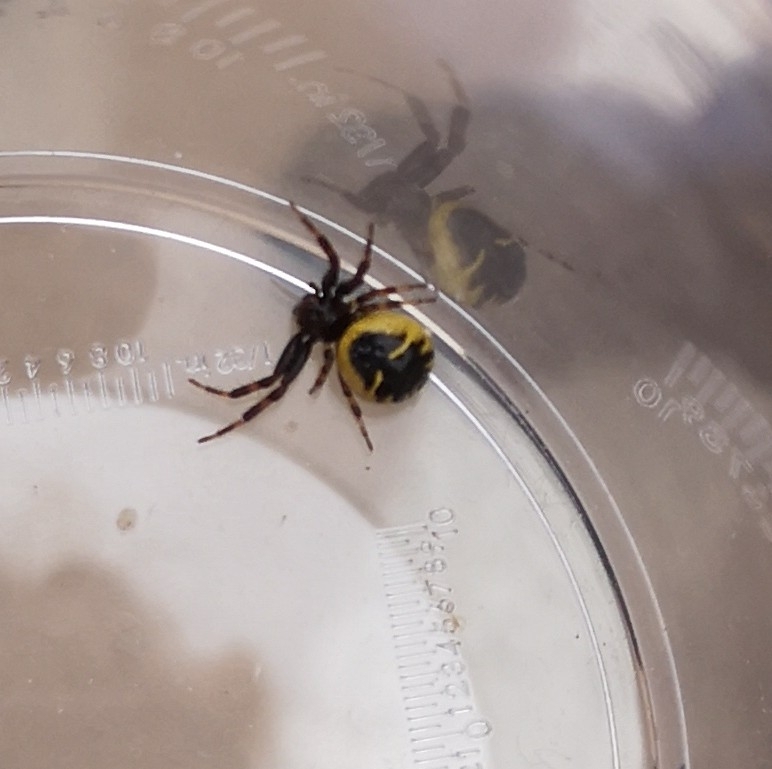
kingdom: Animalia
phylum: Arthropoda
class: Arachnida
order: Araneae
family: Thomisidae
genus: Synema
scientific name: Synema globosum
